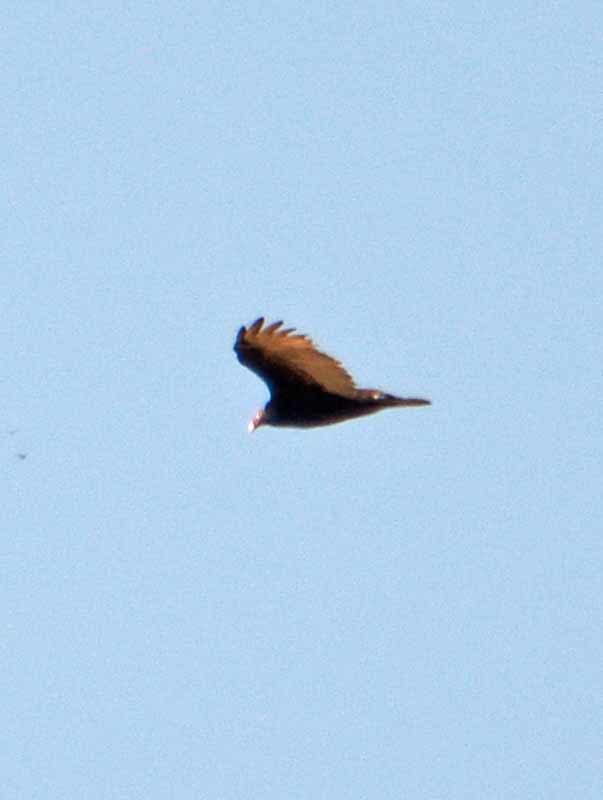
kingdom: Animalia
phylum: Chordata
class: Aves
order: Accipitriformes
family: Cathartidae
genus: Cathartes
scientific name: Cathartes aura
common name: Turkey vulture
